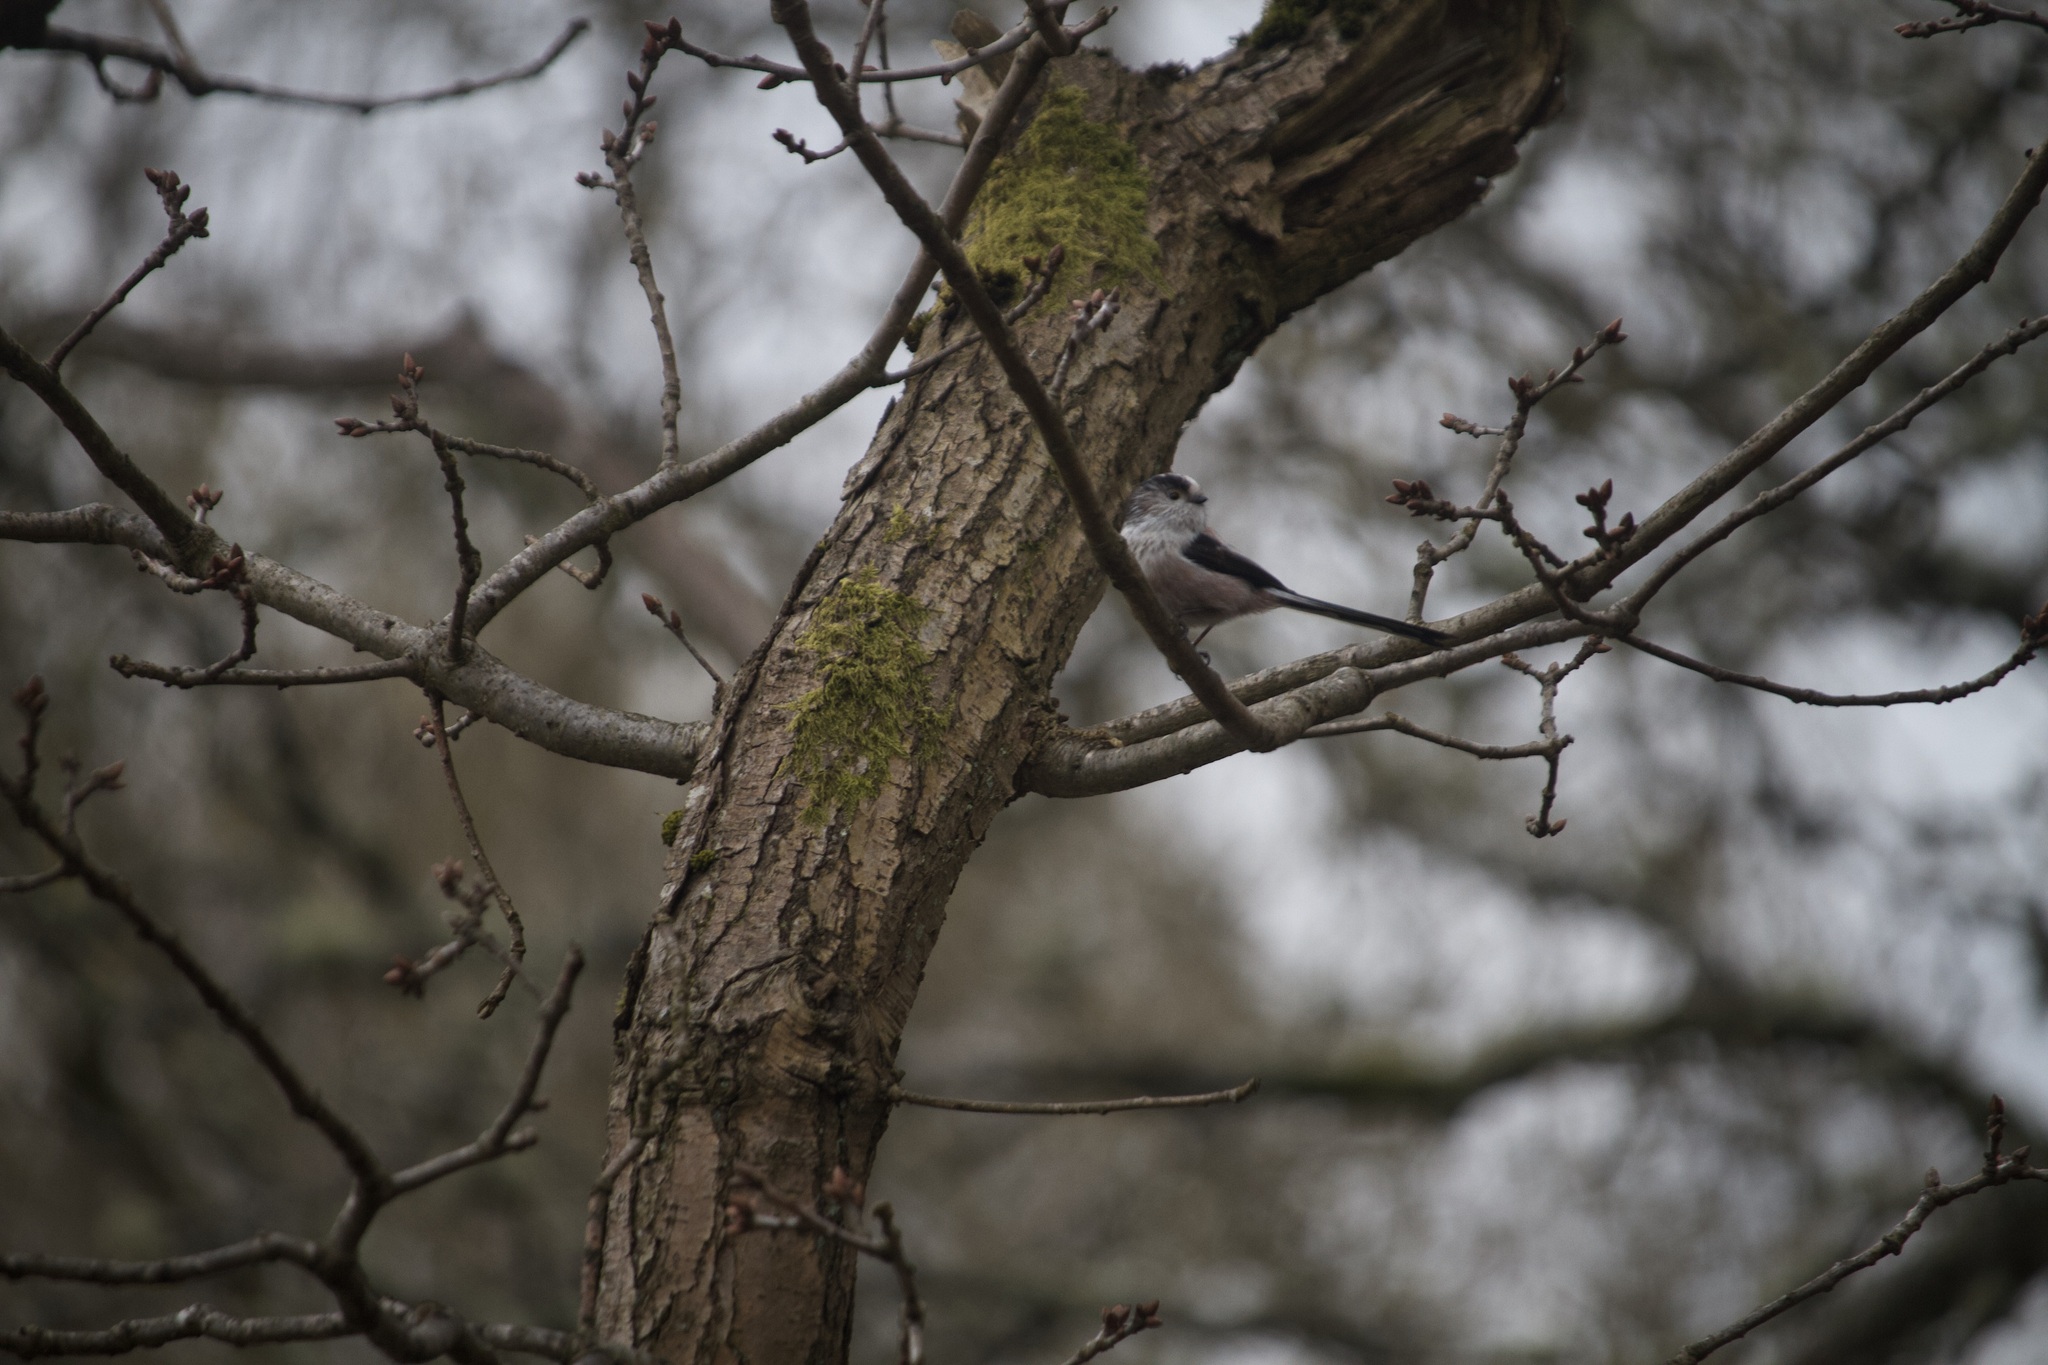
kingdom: Animalia
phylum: Chordata
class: Aves
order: Passeriformes
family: Aegithalidae
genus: Aegithalos
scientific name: Aegithalos caudatus
